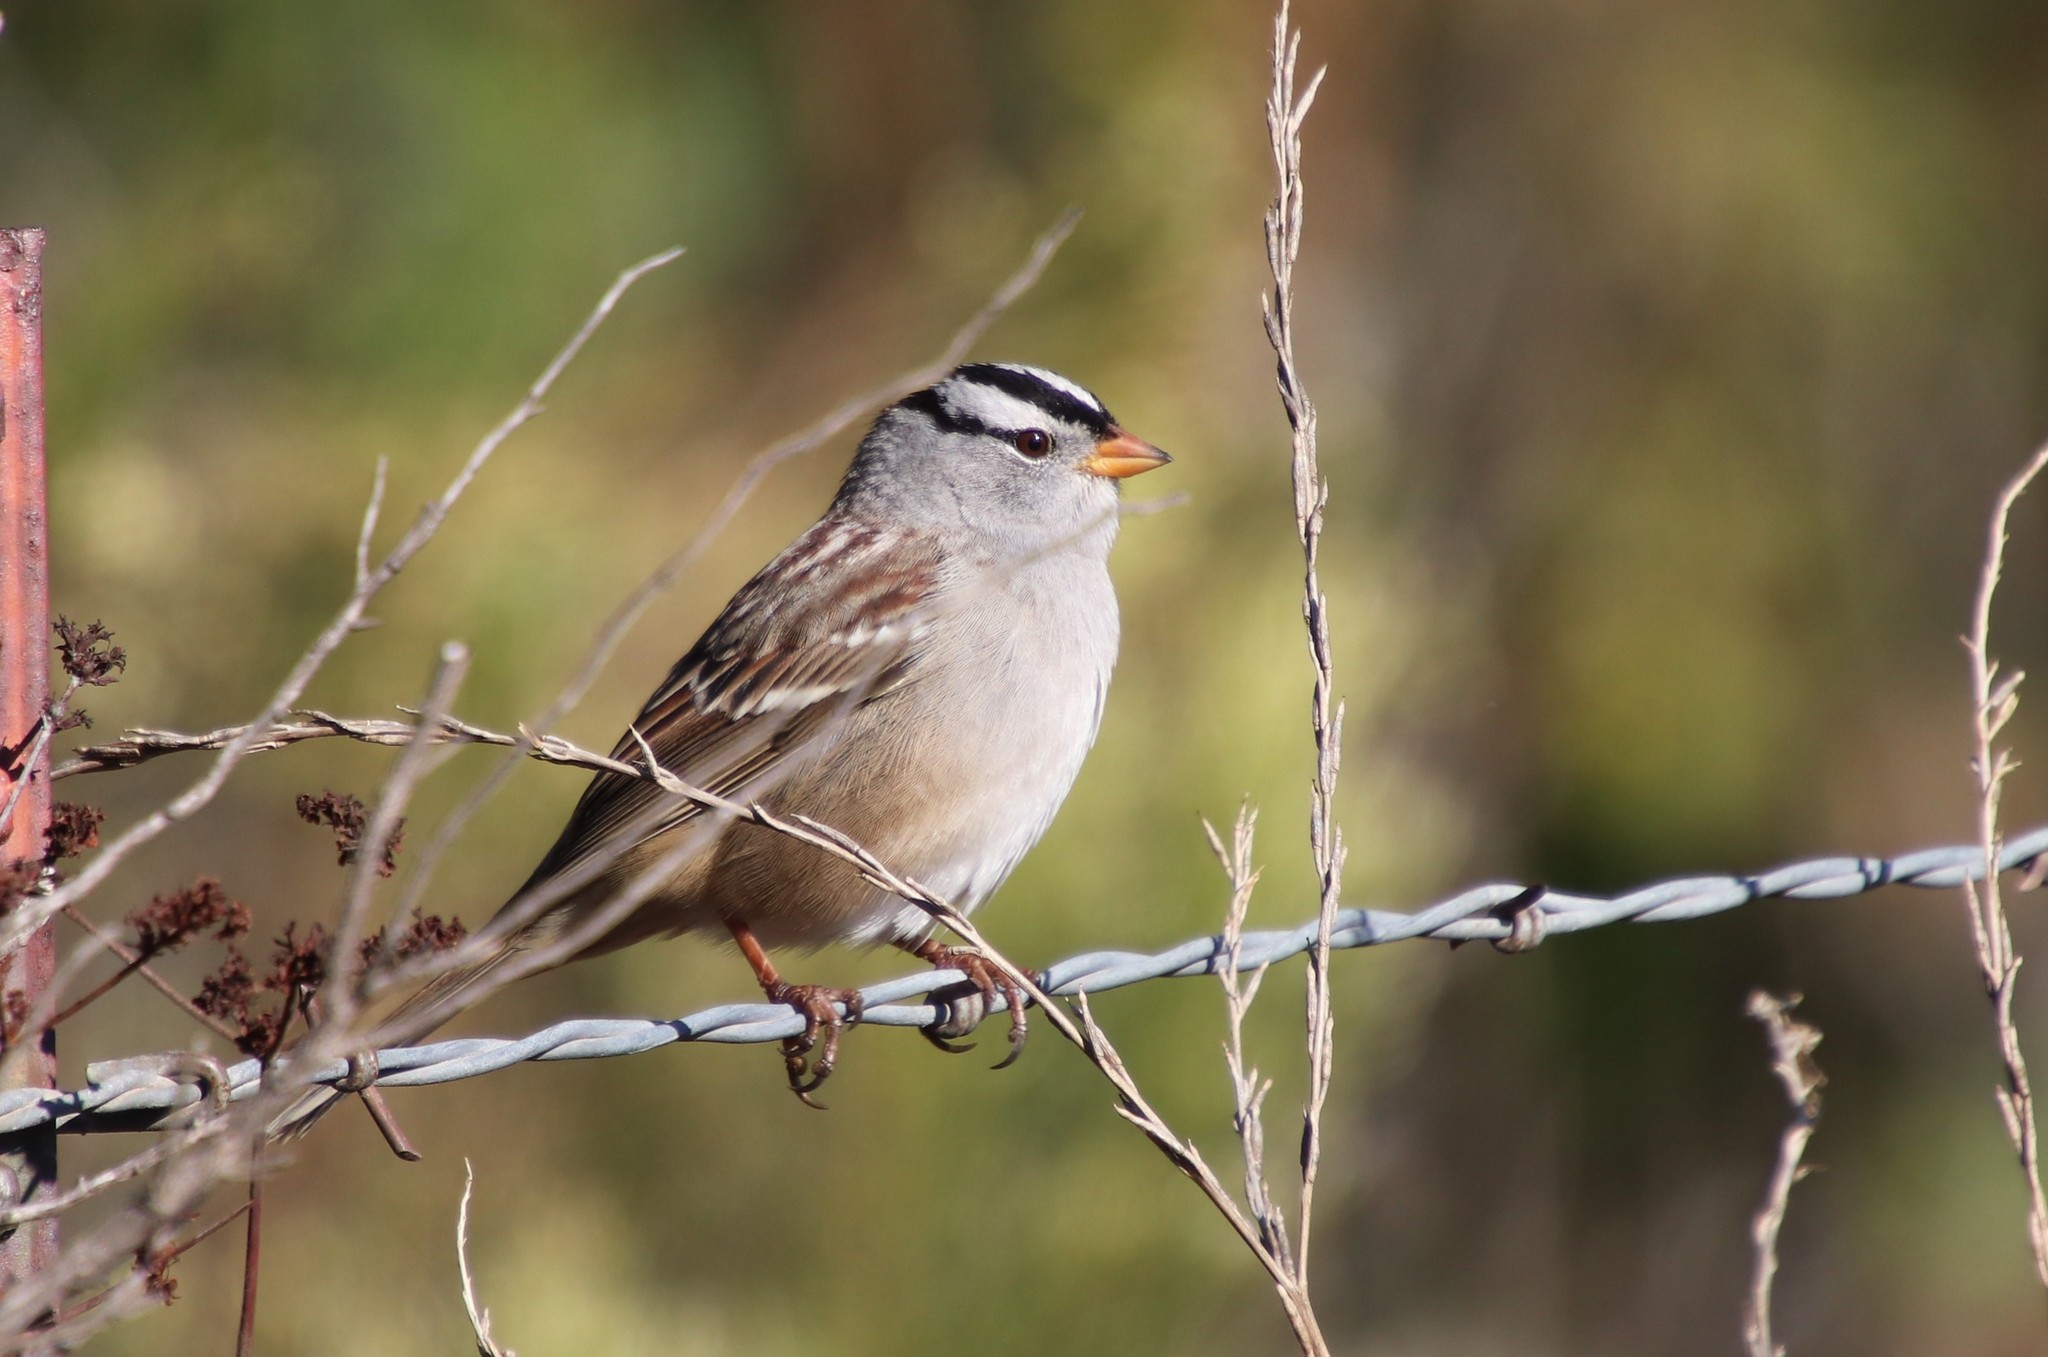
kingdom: Animalia
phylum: Chordata
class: Aves
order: Passeriformes
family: Passerellidae
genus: Zonotrichia
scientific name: Zonotrichia leucophrys
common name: White-crowned sparrow
